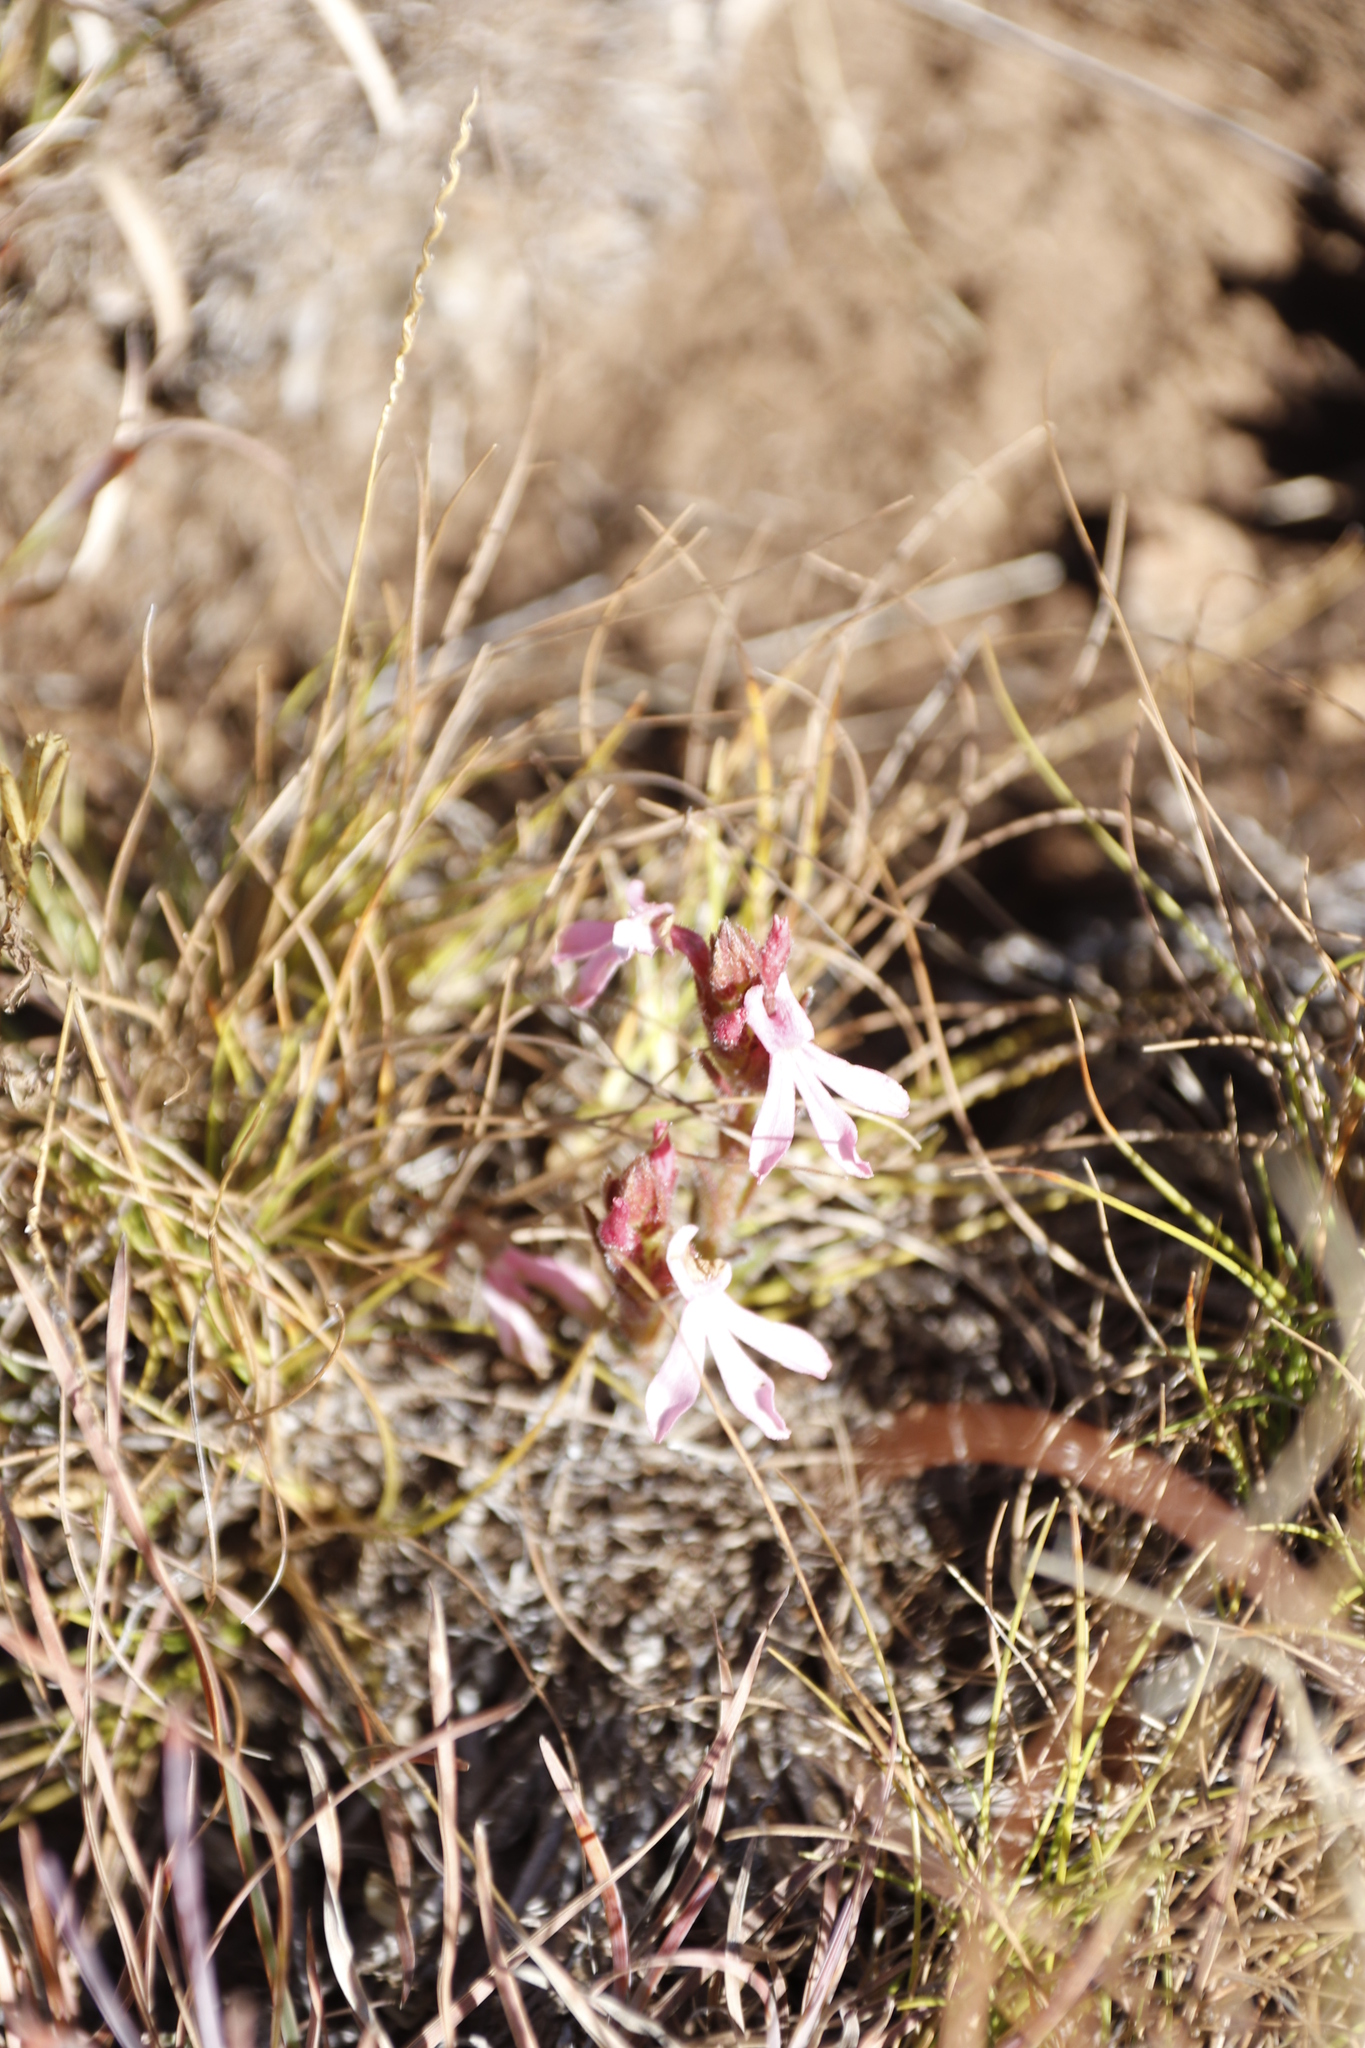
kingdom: Plantae
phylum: Tracheophyta
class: Magnoliopsida
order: Lamiales
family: Orobanchaceae
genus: Striga
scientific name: Striga elegans
